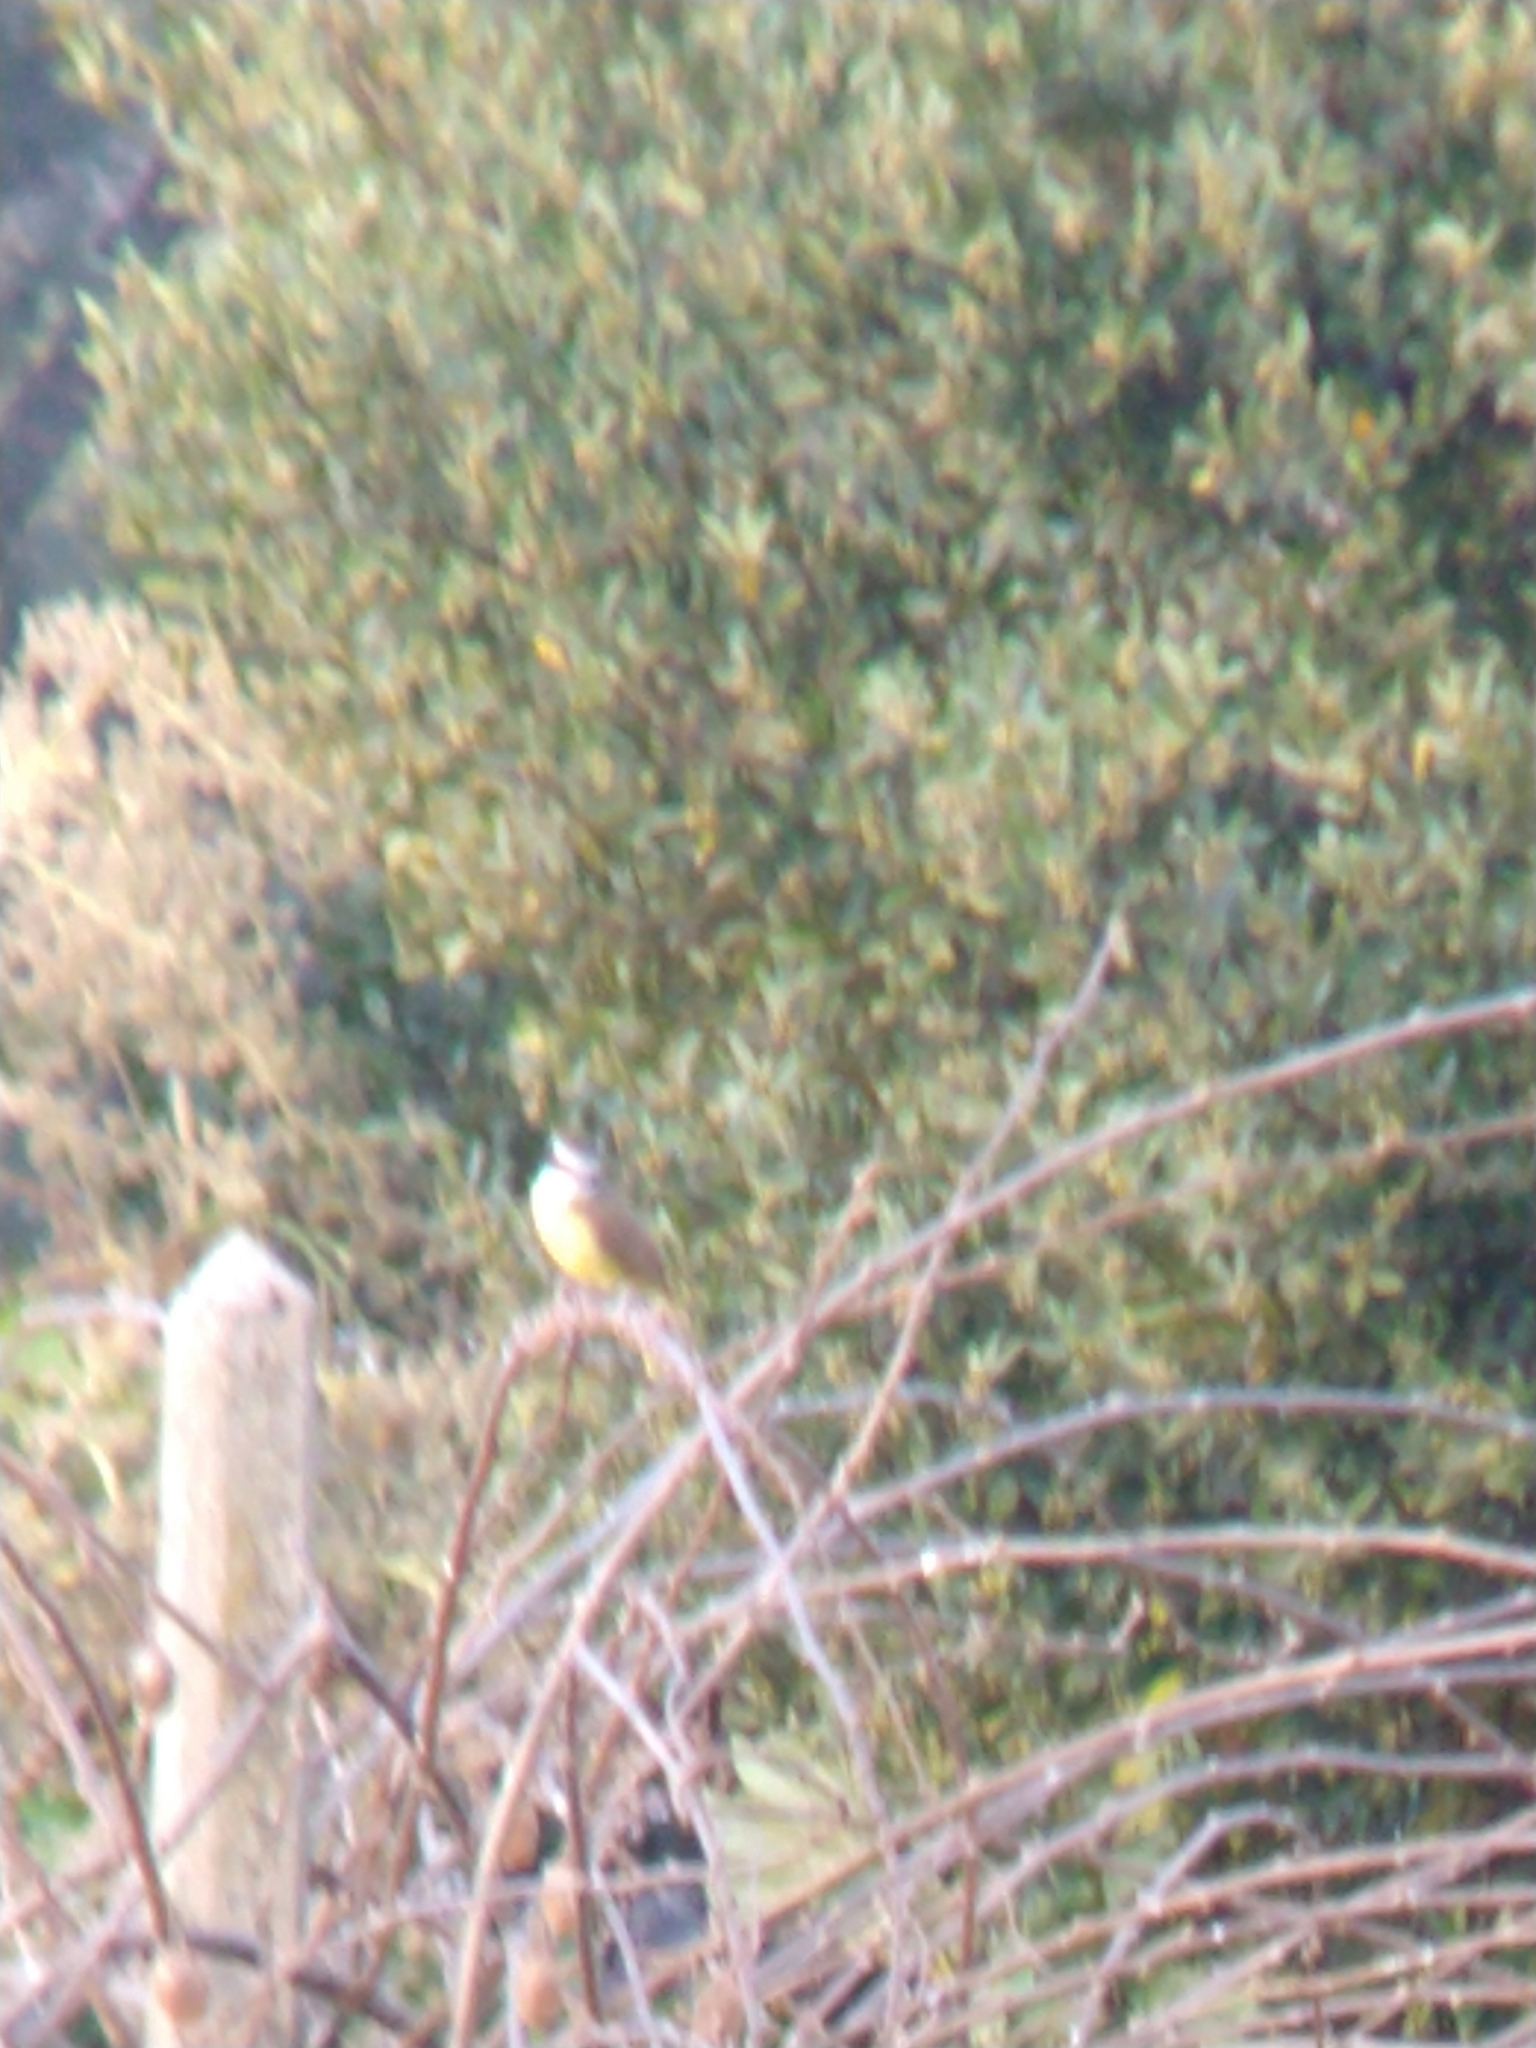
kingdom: Animalia
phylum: Chordata
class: Aves
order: Passeriformes
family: Tyrannidae
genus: Pitangus
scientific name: Pitangus sulphuratus
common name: Great kiskadee
